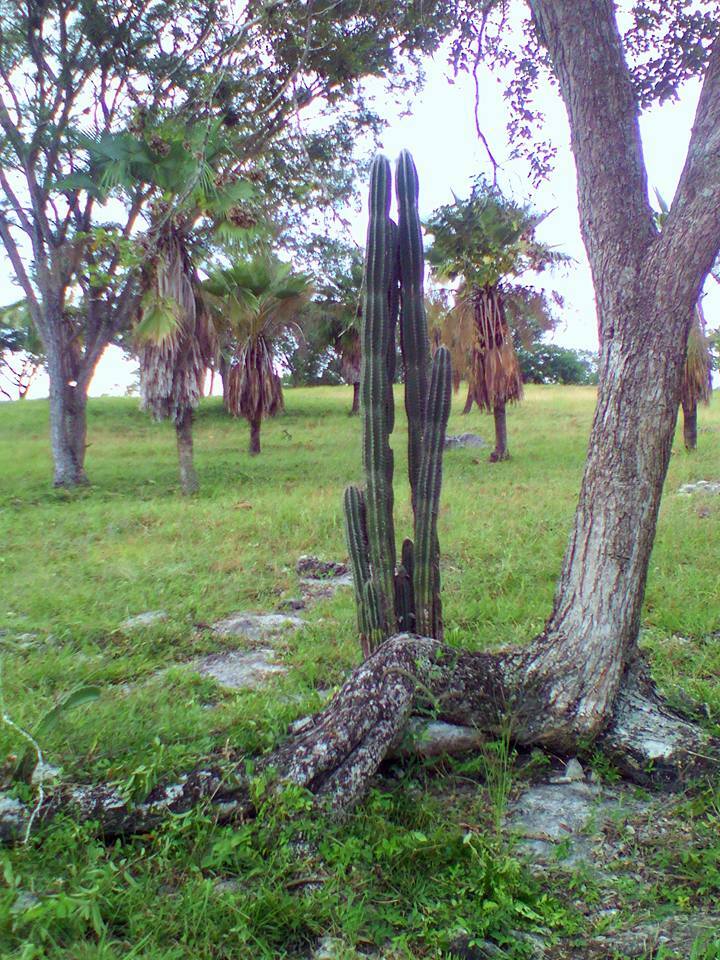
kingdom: Plantae
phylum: Tracheophyta
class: Magnoliopsida
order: Caryophyllales
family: Cactaceae
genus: Pilosocereus
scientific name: Pilosocereus leucocephalus
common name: Old man cactus
